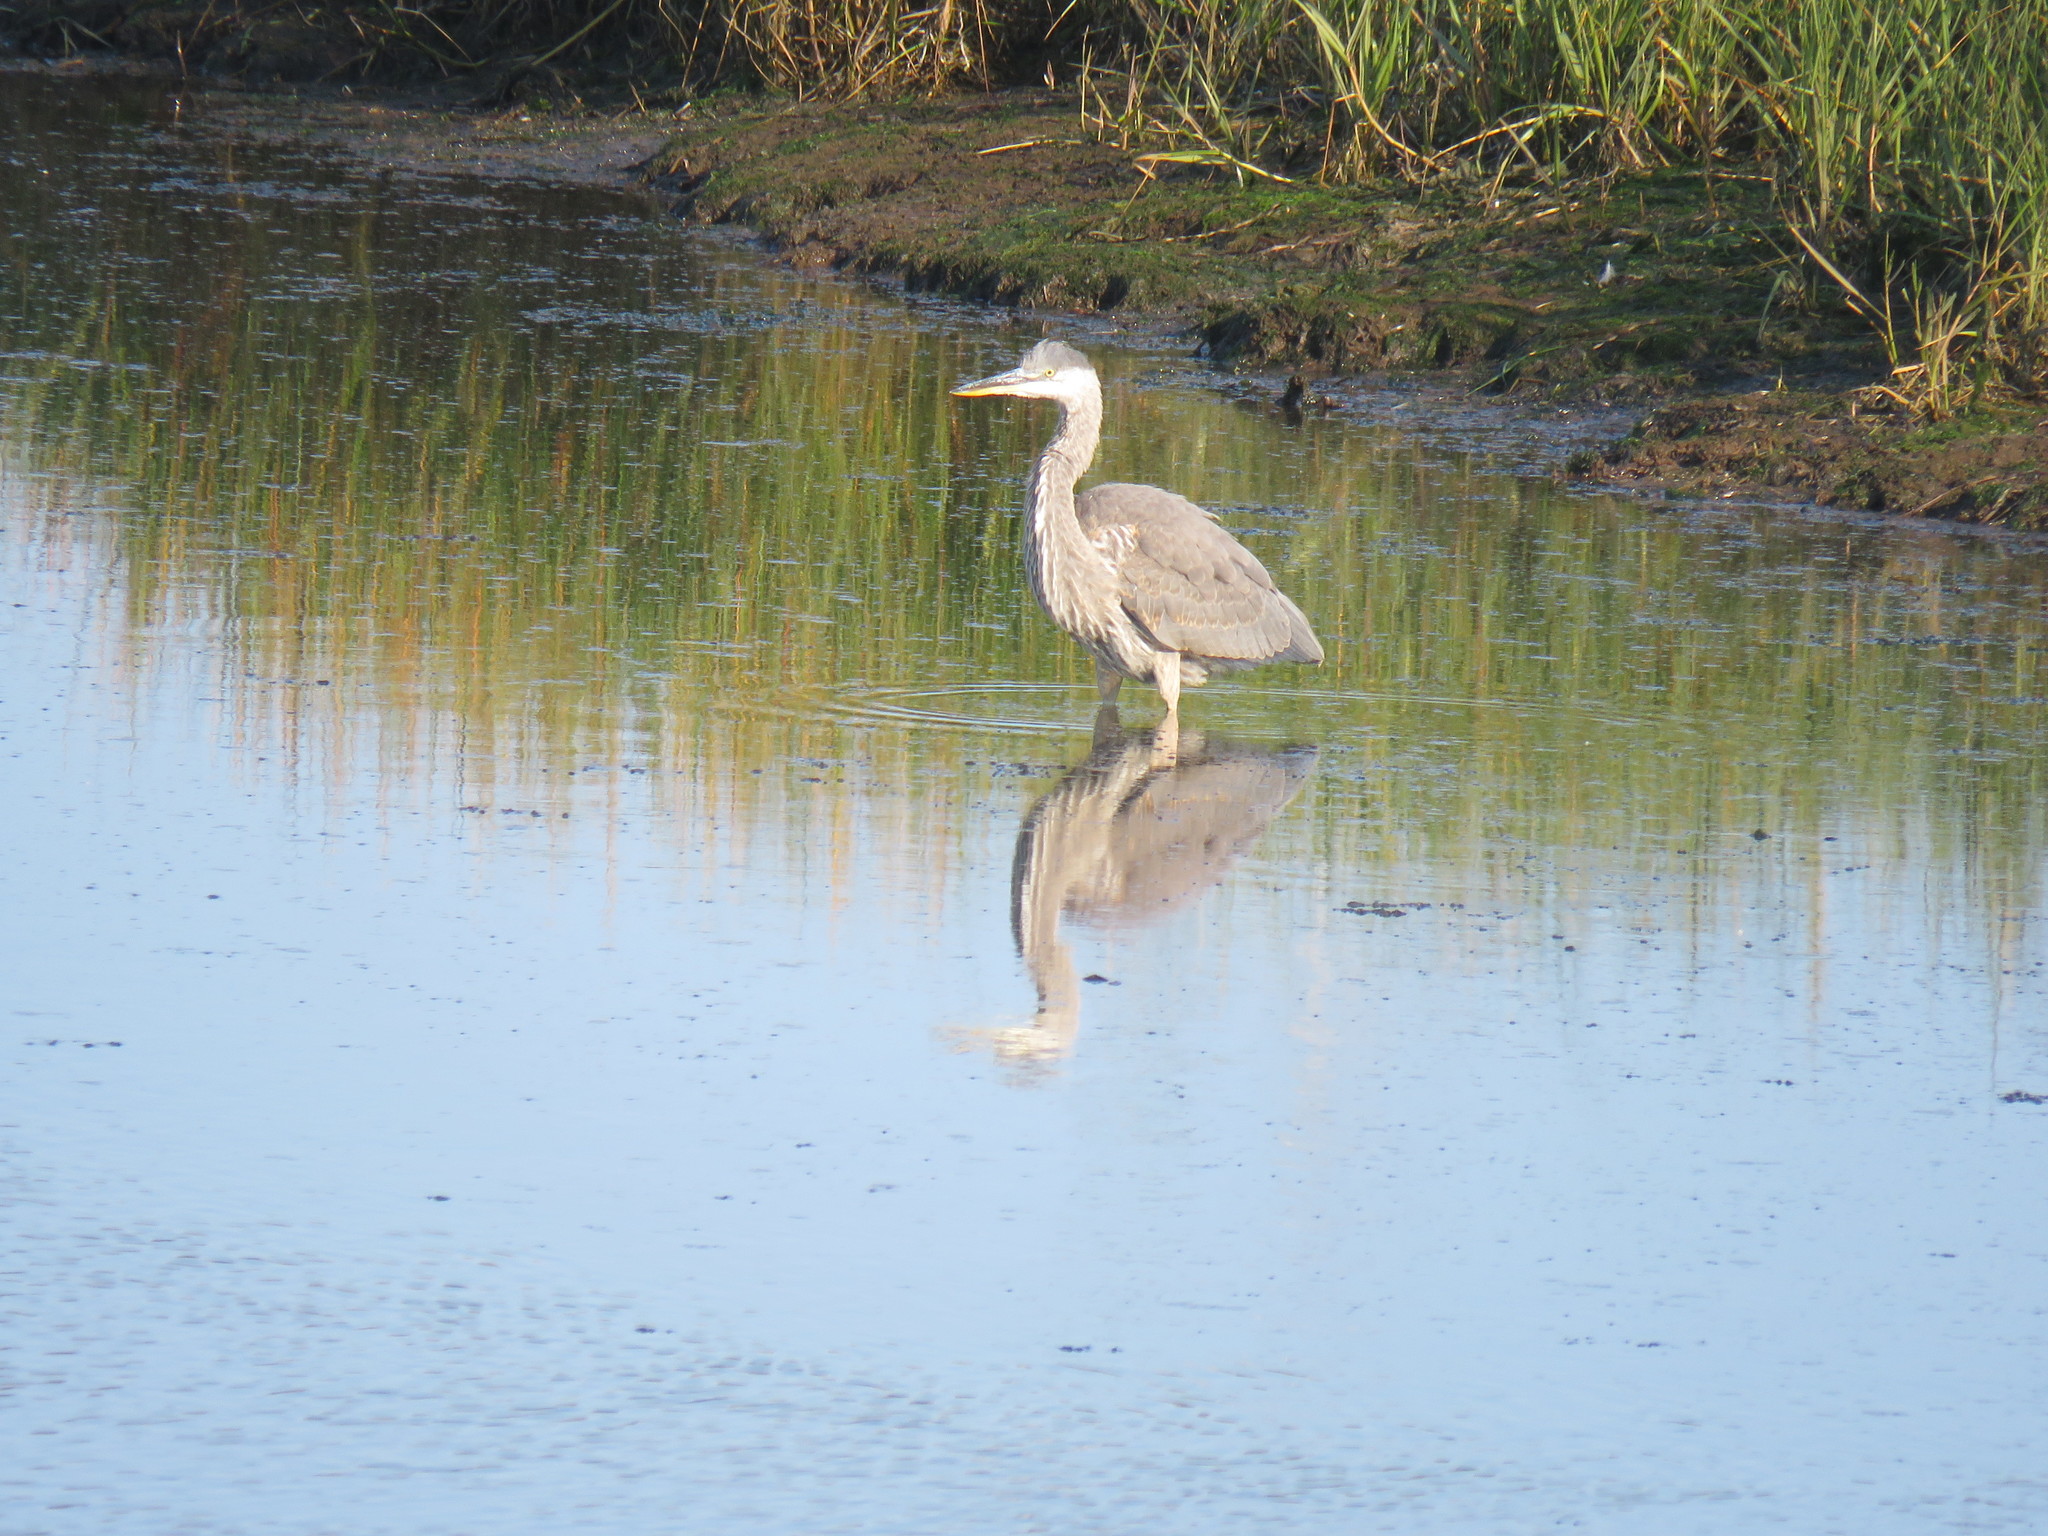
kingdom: Animalia
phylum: Chordata
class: Aves
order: Pelecaniformes
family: Ardeidae
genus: Ardea
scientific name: Ardea herodias
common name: Great blue heron
